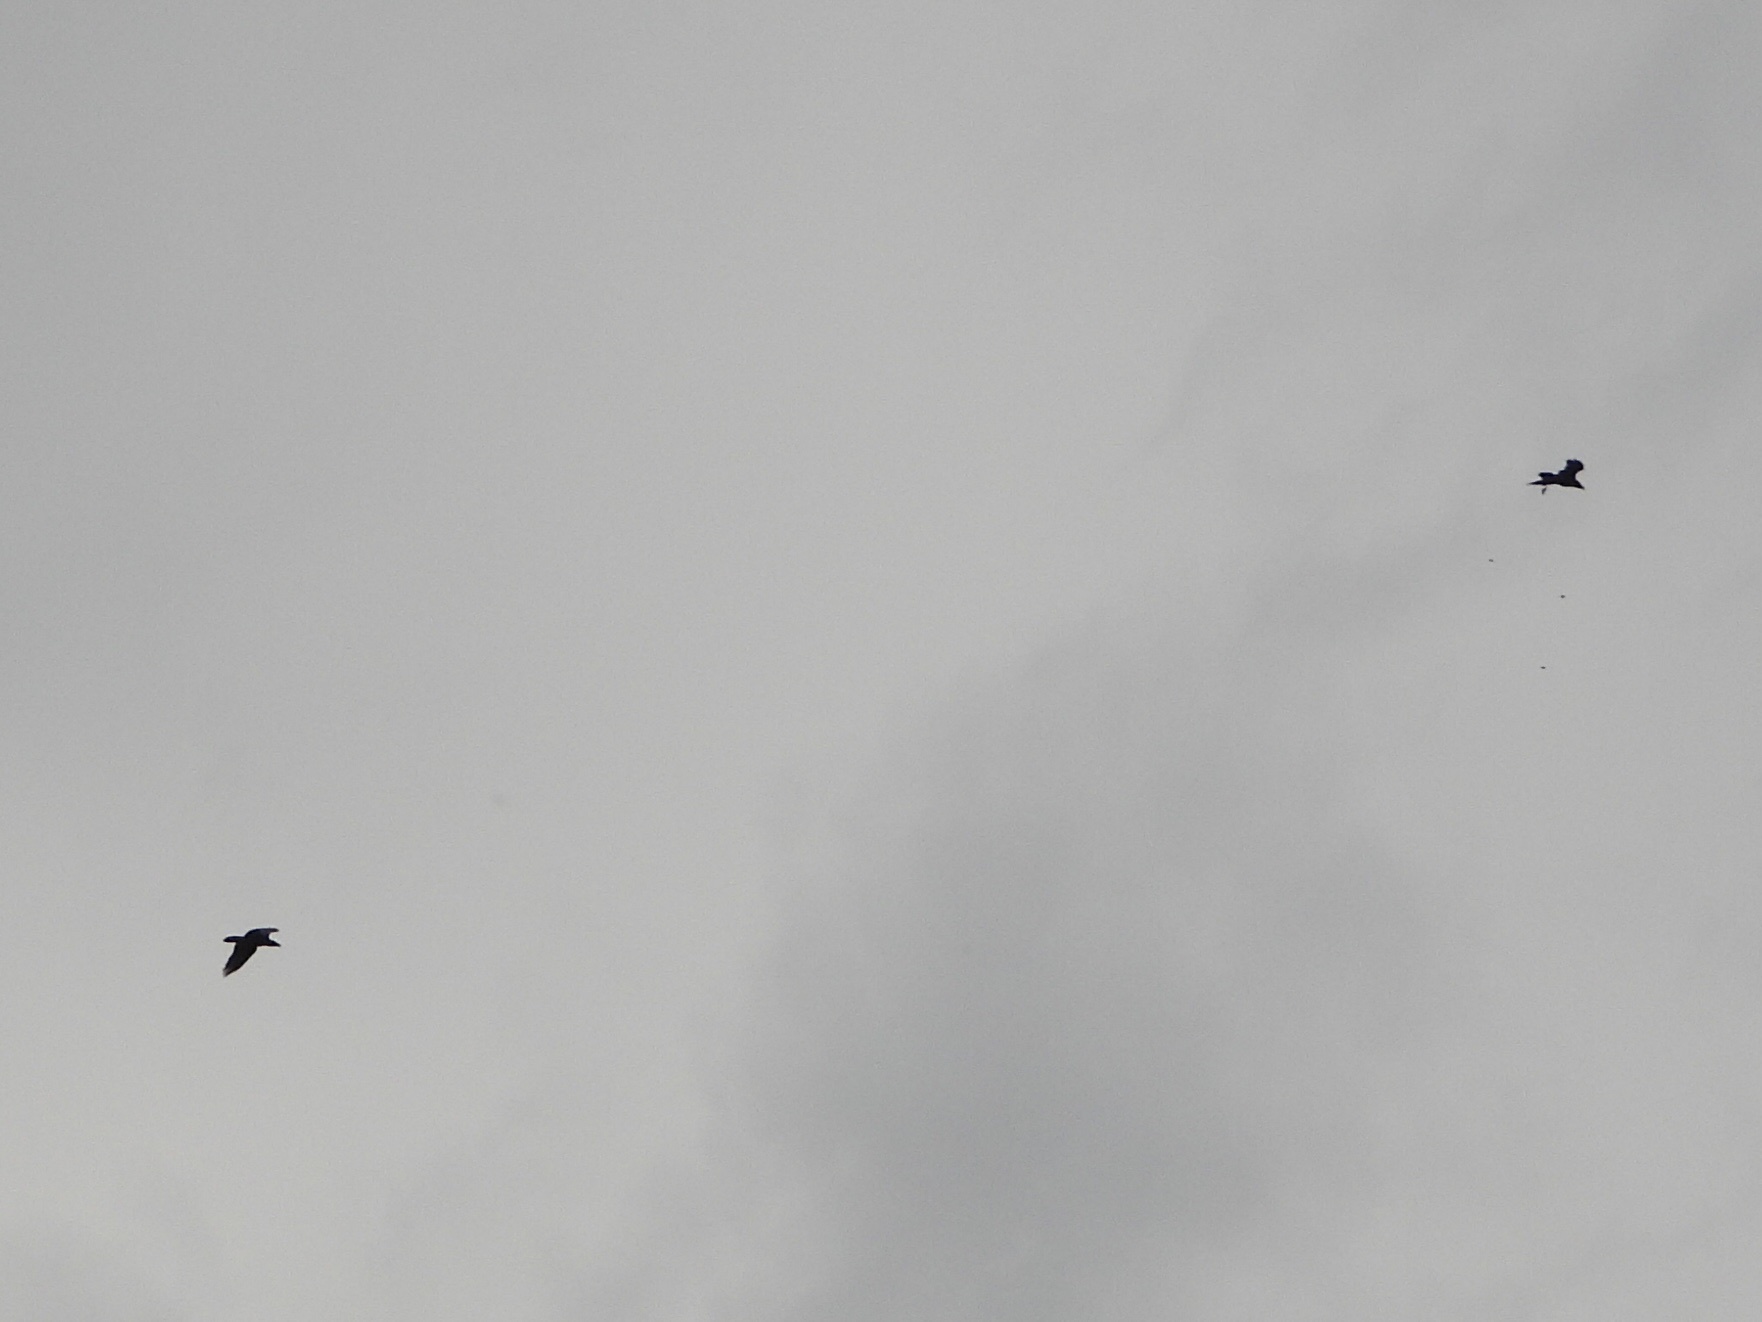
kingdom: Animalia
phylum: Chordata
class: Aves
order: Passeriformes
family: Corvidae
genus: Corvus
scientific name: Corvus corax
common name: Common raven
